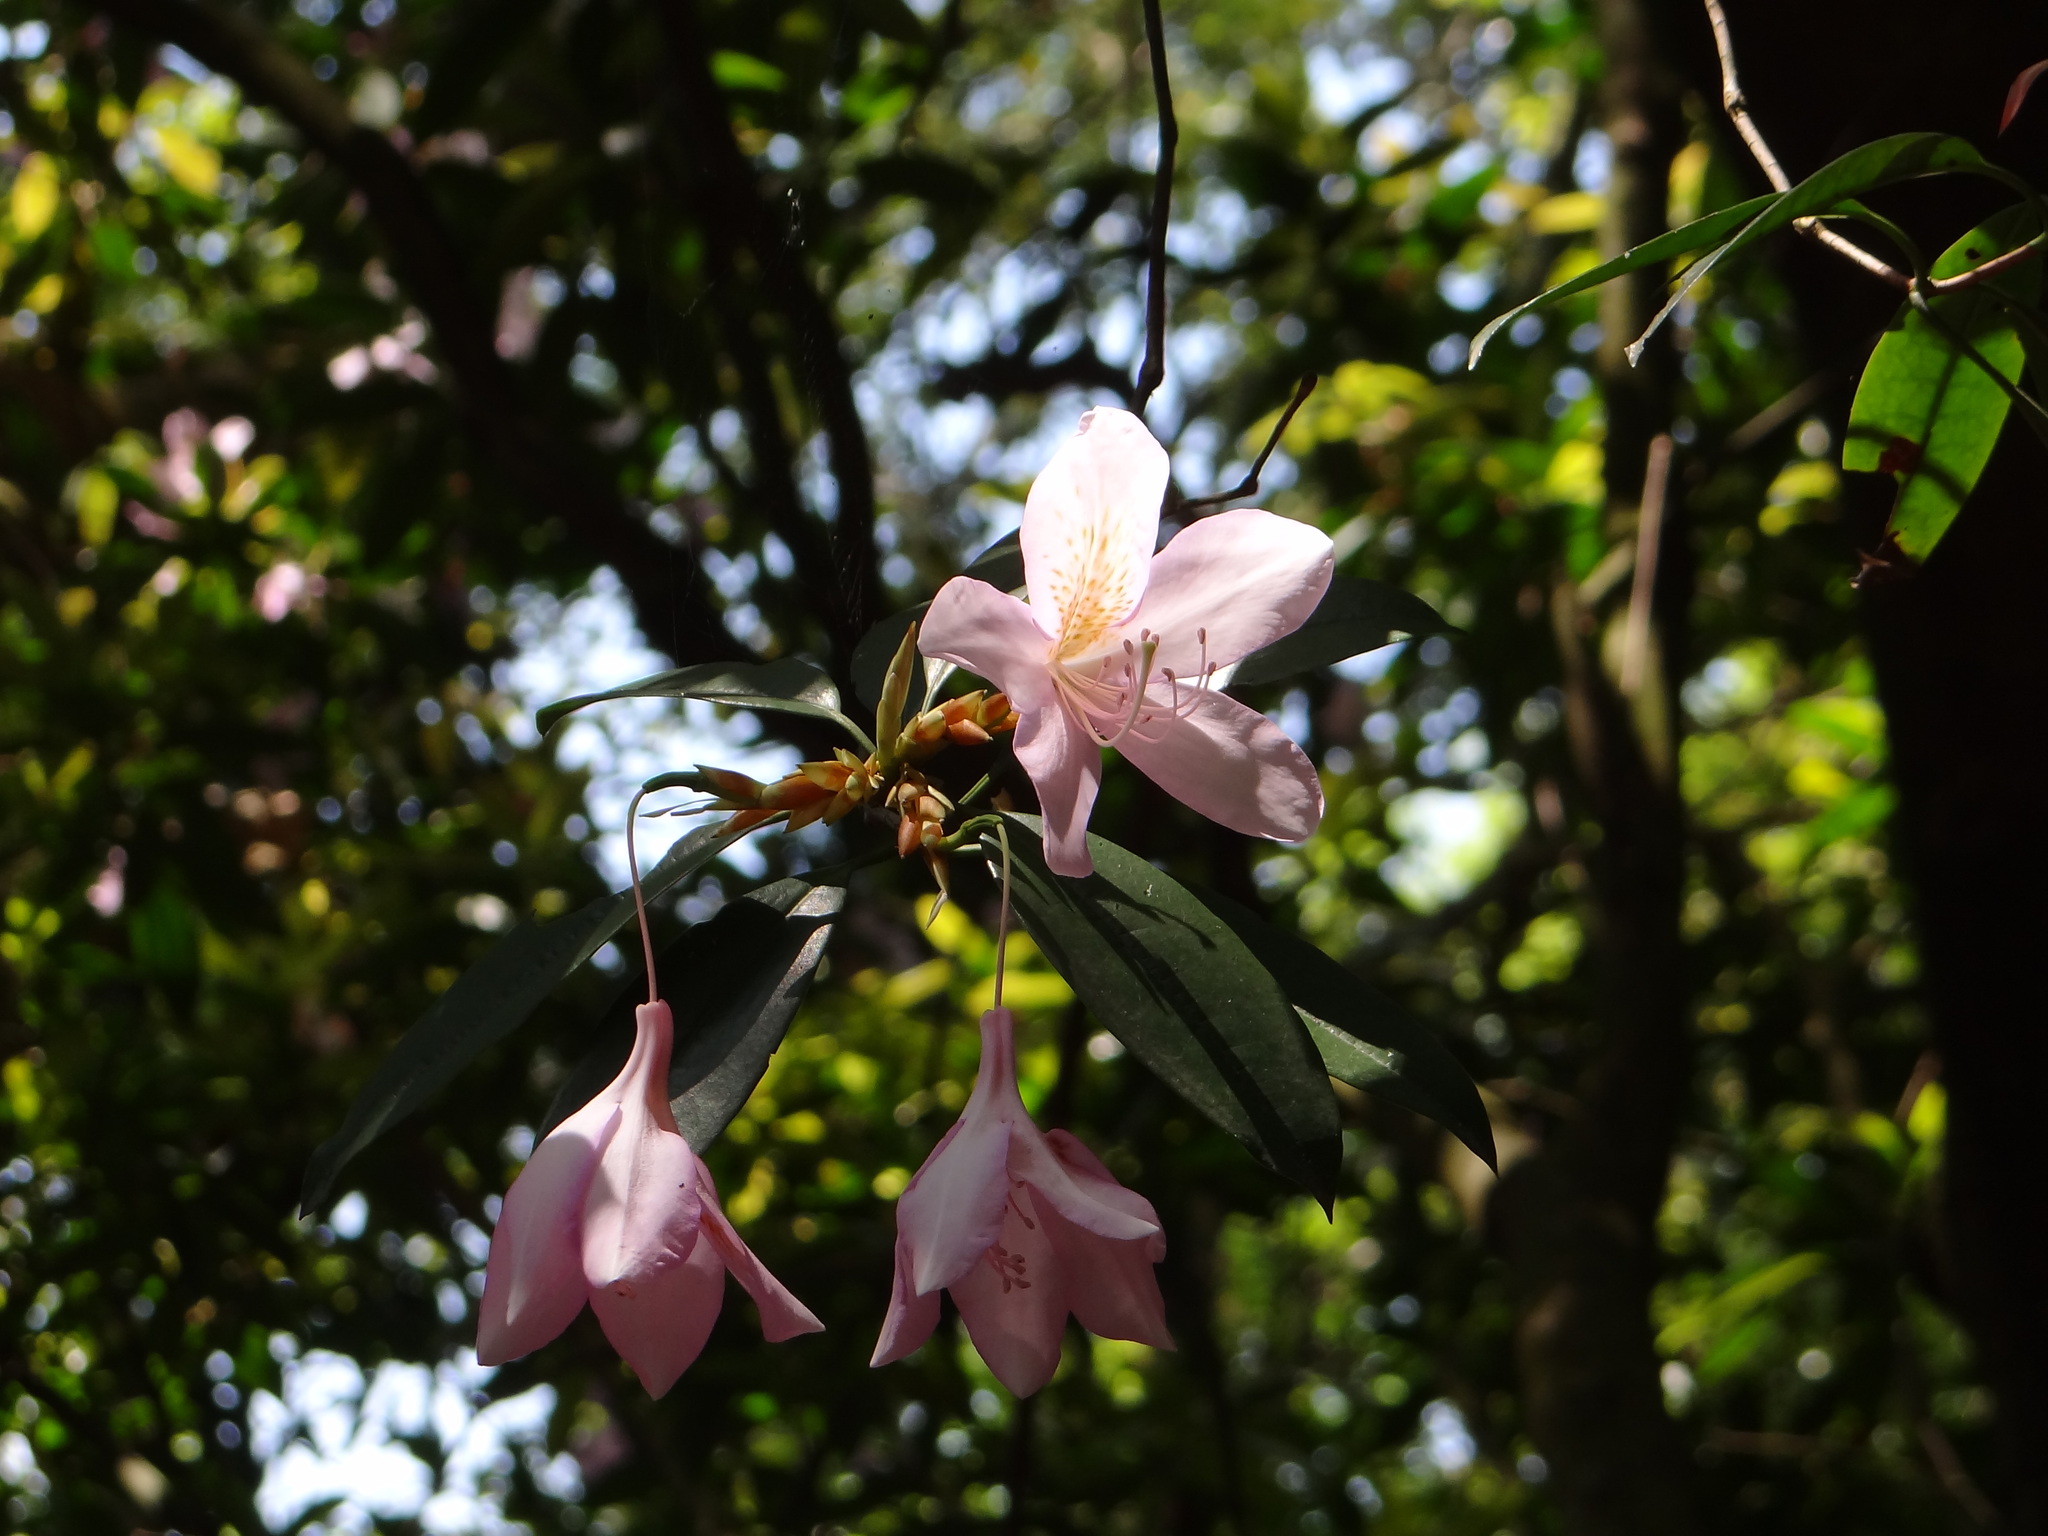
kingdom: Plantae
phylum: Tracheophyta
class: Magnoliopsida
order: Ericales
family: Ericaceae
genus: Rhododendron
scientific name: Rhododendron latoucheae
